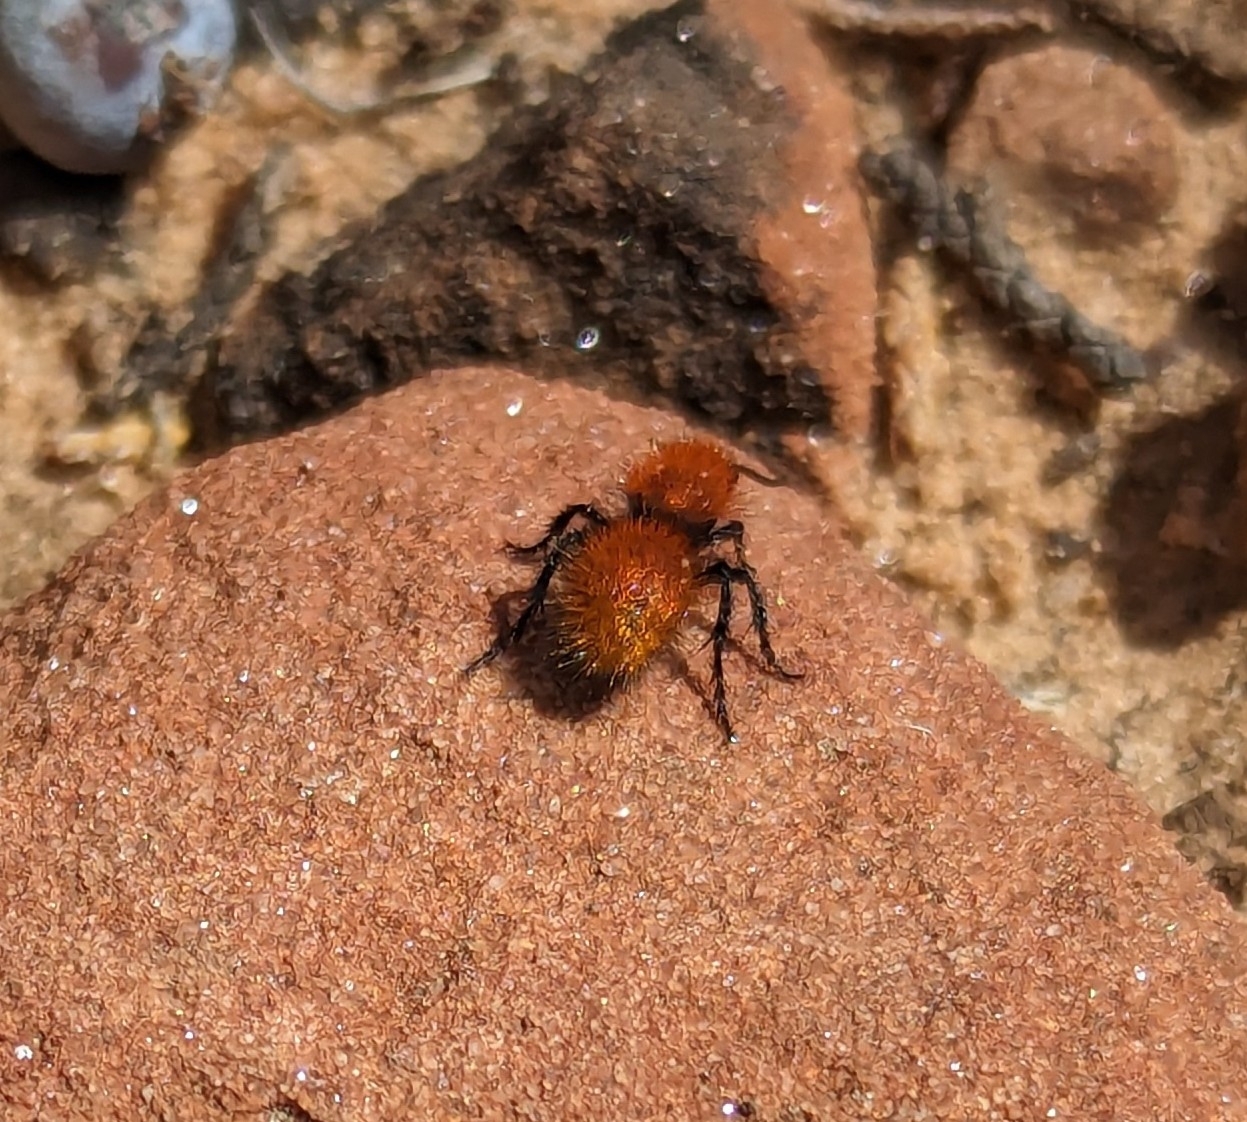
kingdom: Animalia
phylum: Arthropoda
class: Insecta
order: Hymenoptera
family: Mutillidae
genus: Dasymutilla
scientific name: Dasymutilla vestita
